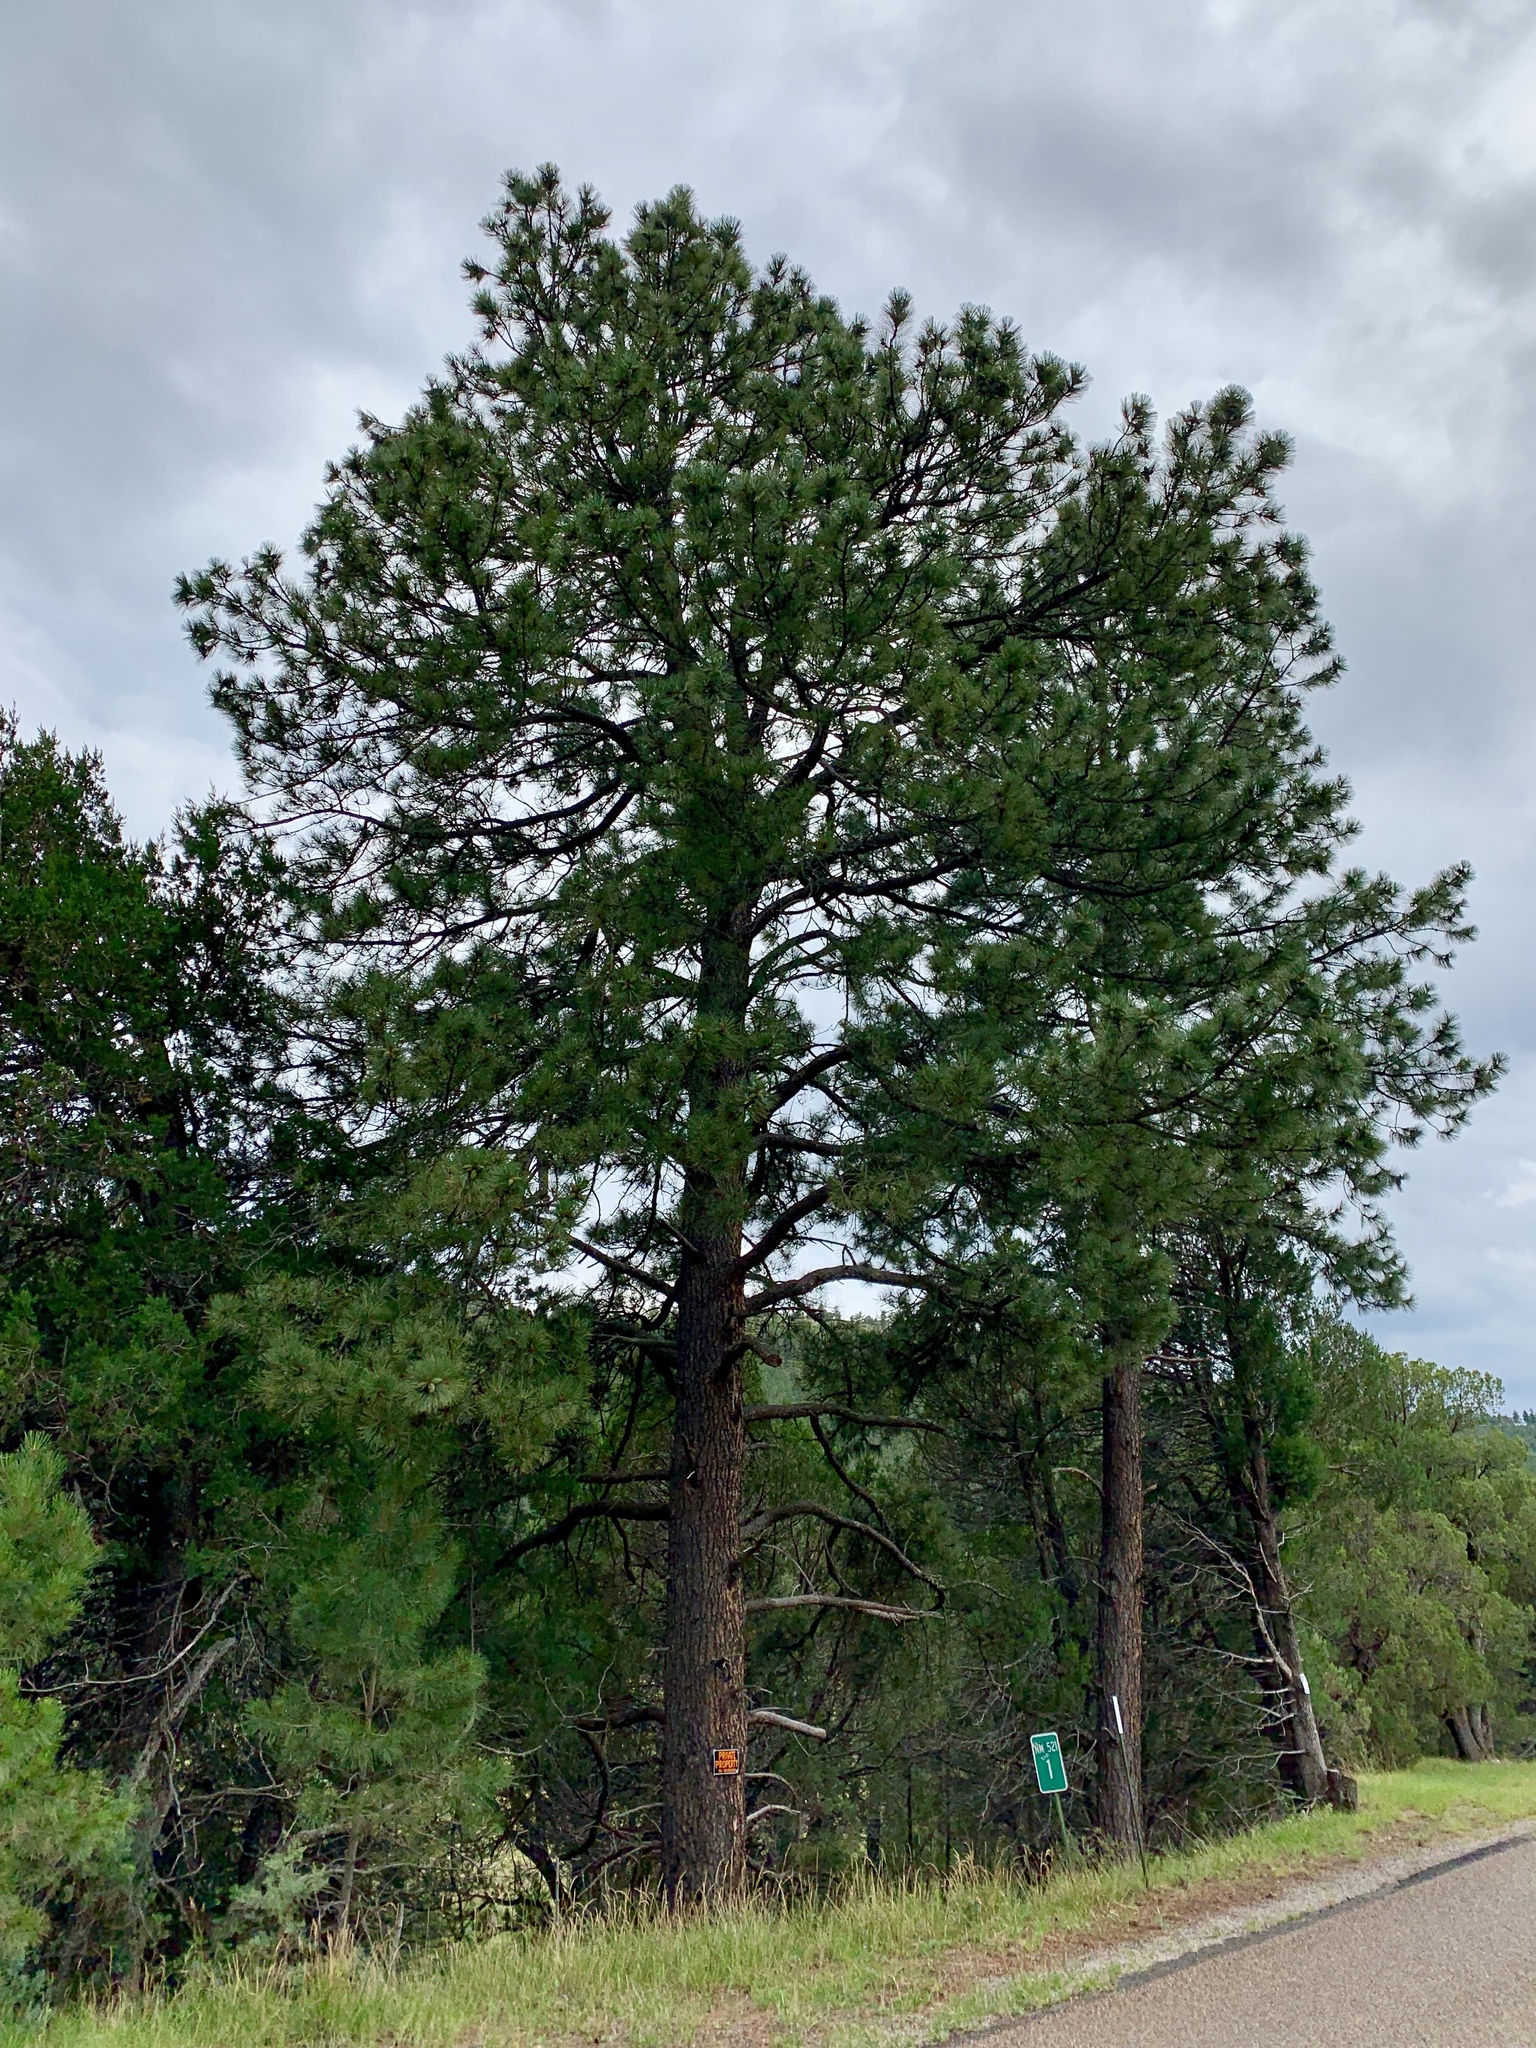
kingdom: Plantae
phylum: Tracheophyta
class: Pinopsida
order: Pinales
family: Pinaceae
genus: Pinus
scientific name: Pinus ponderosa
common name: Western yellow-pine
